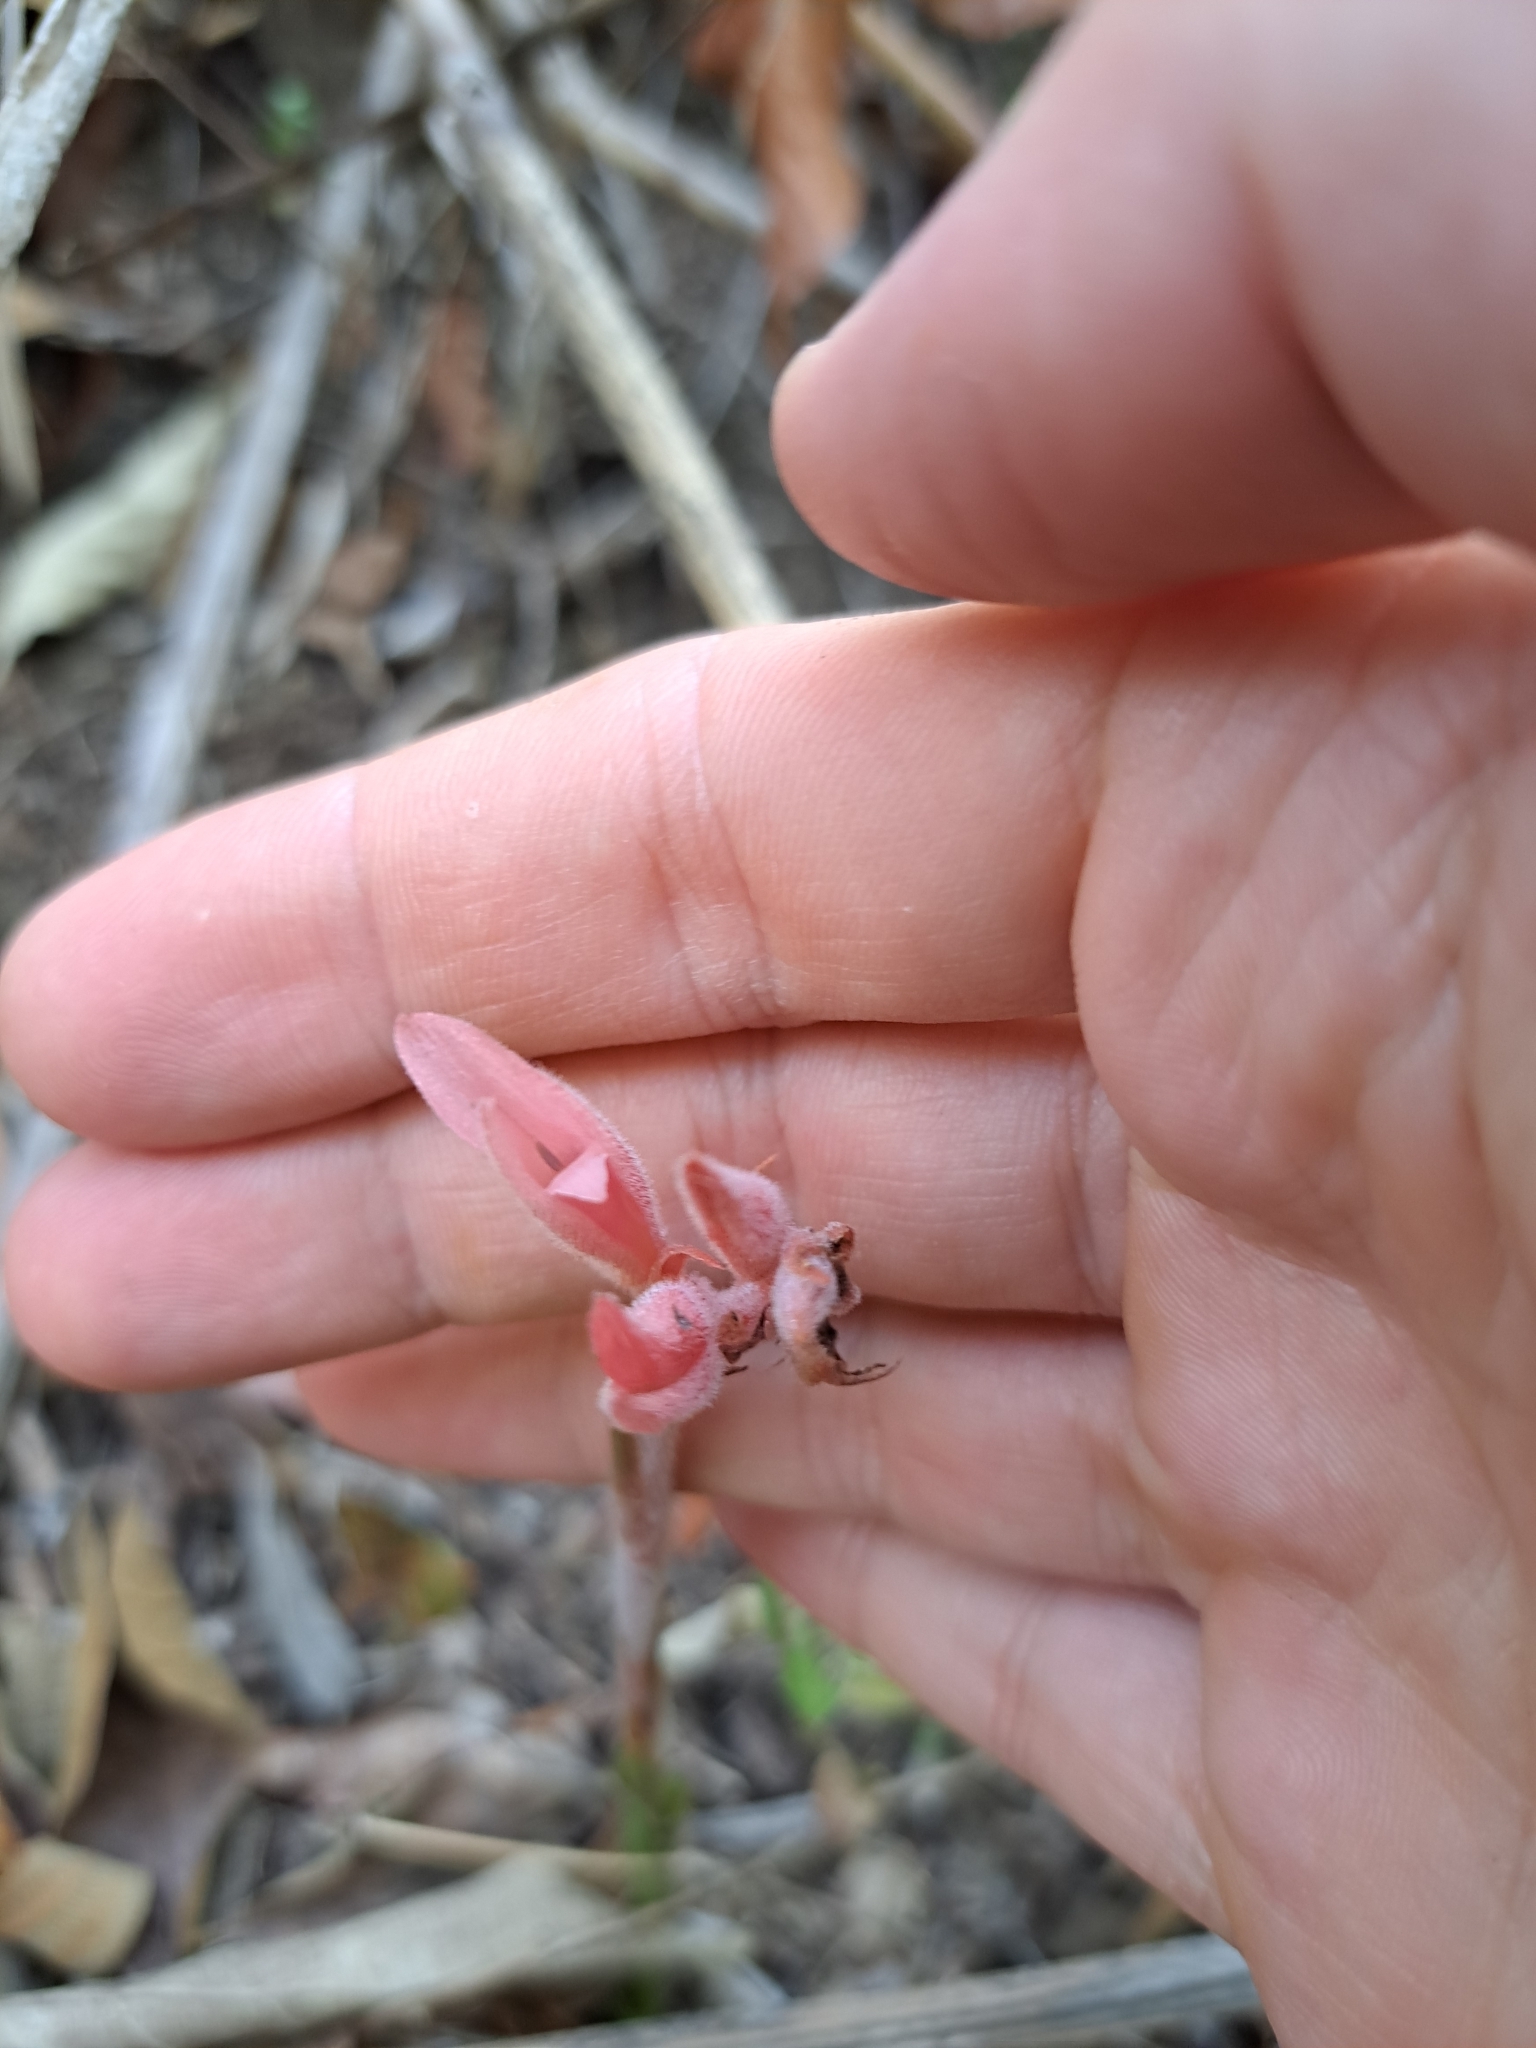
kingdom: Plantae
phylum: Tracheophyta
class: Liliopsida
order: Asparagales
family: Orchidaceae
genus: Sacoila
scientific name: Sacoila lanceolata
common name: Leafless beaked ladiestresses
